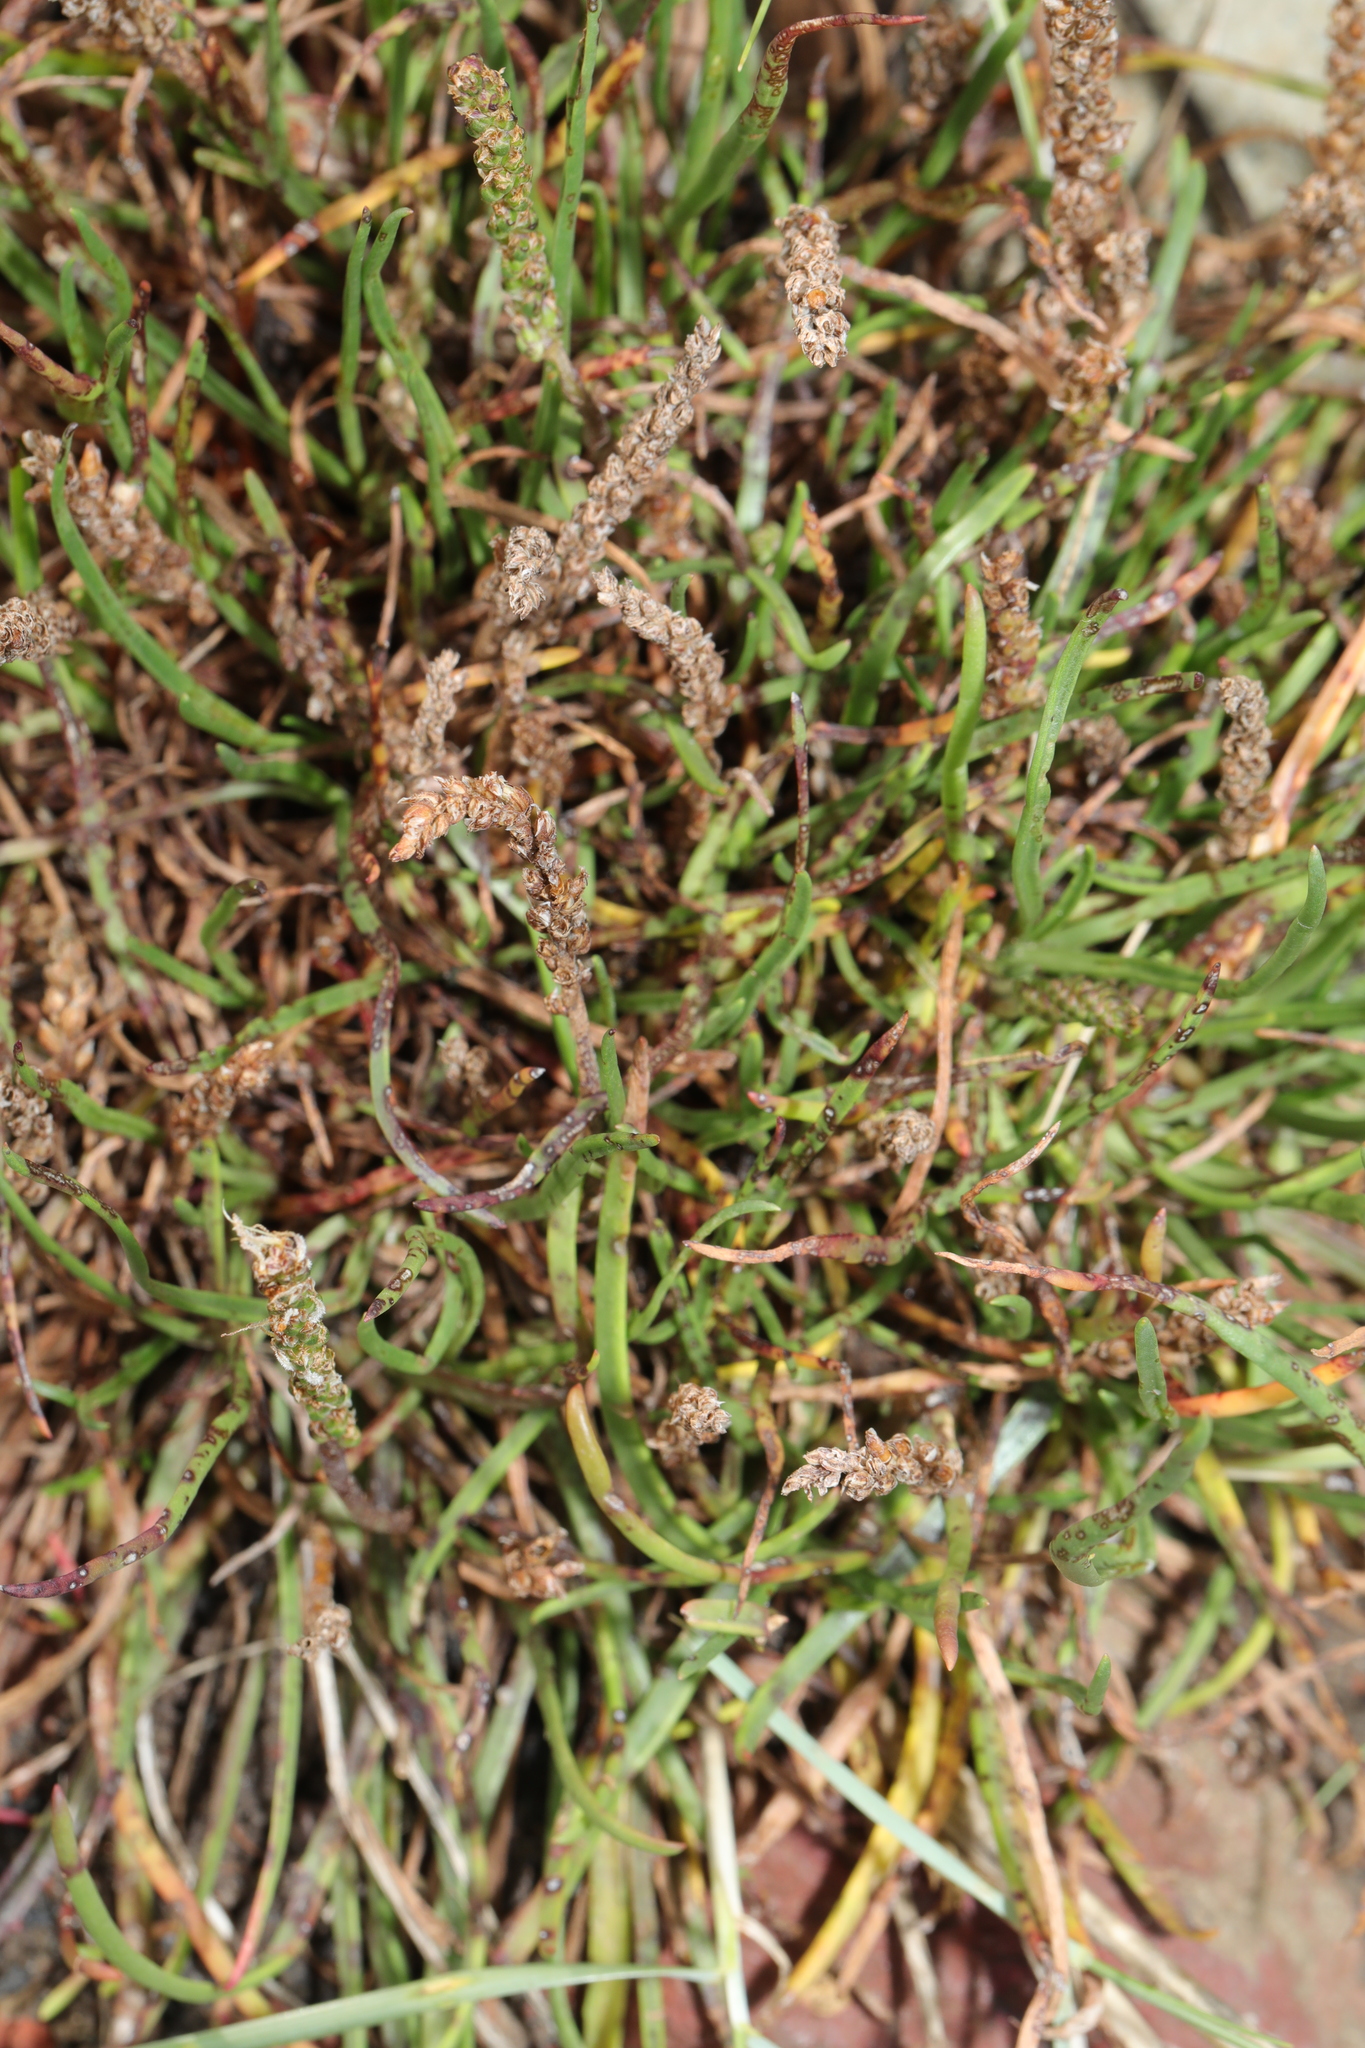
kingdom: Plantae
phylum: Tracheophyta
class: Magnoliopsida
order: Lamiales
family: Plantaginaceae
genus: Plantago
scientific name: Plantago maritima
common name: Sea plantain
